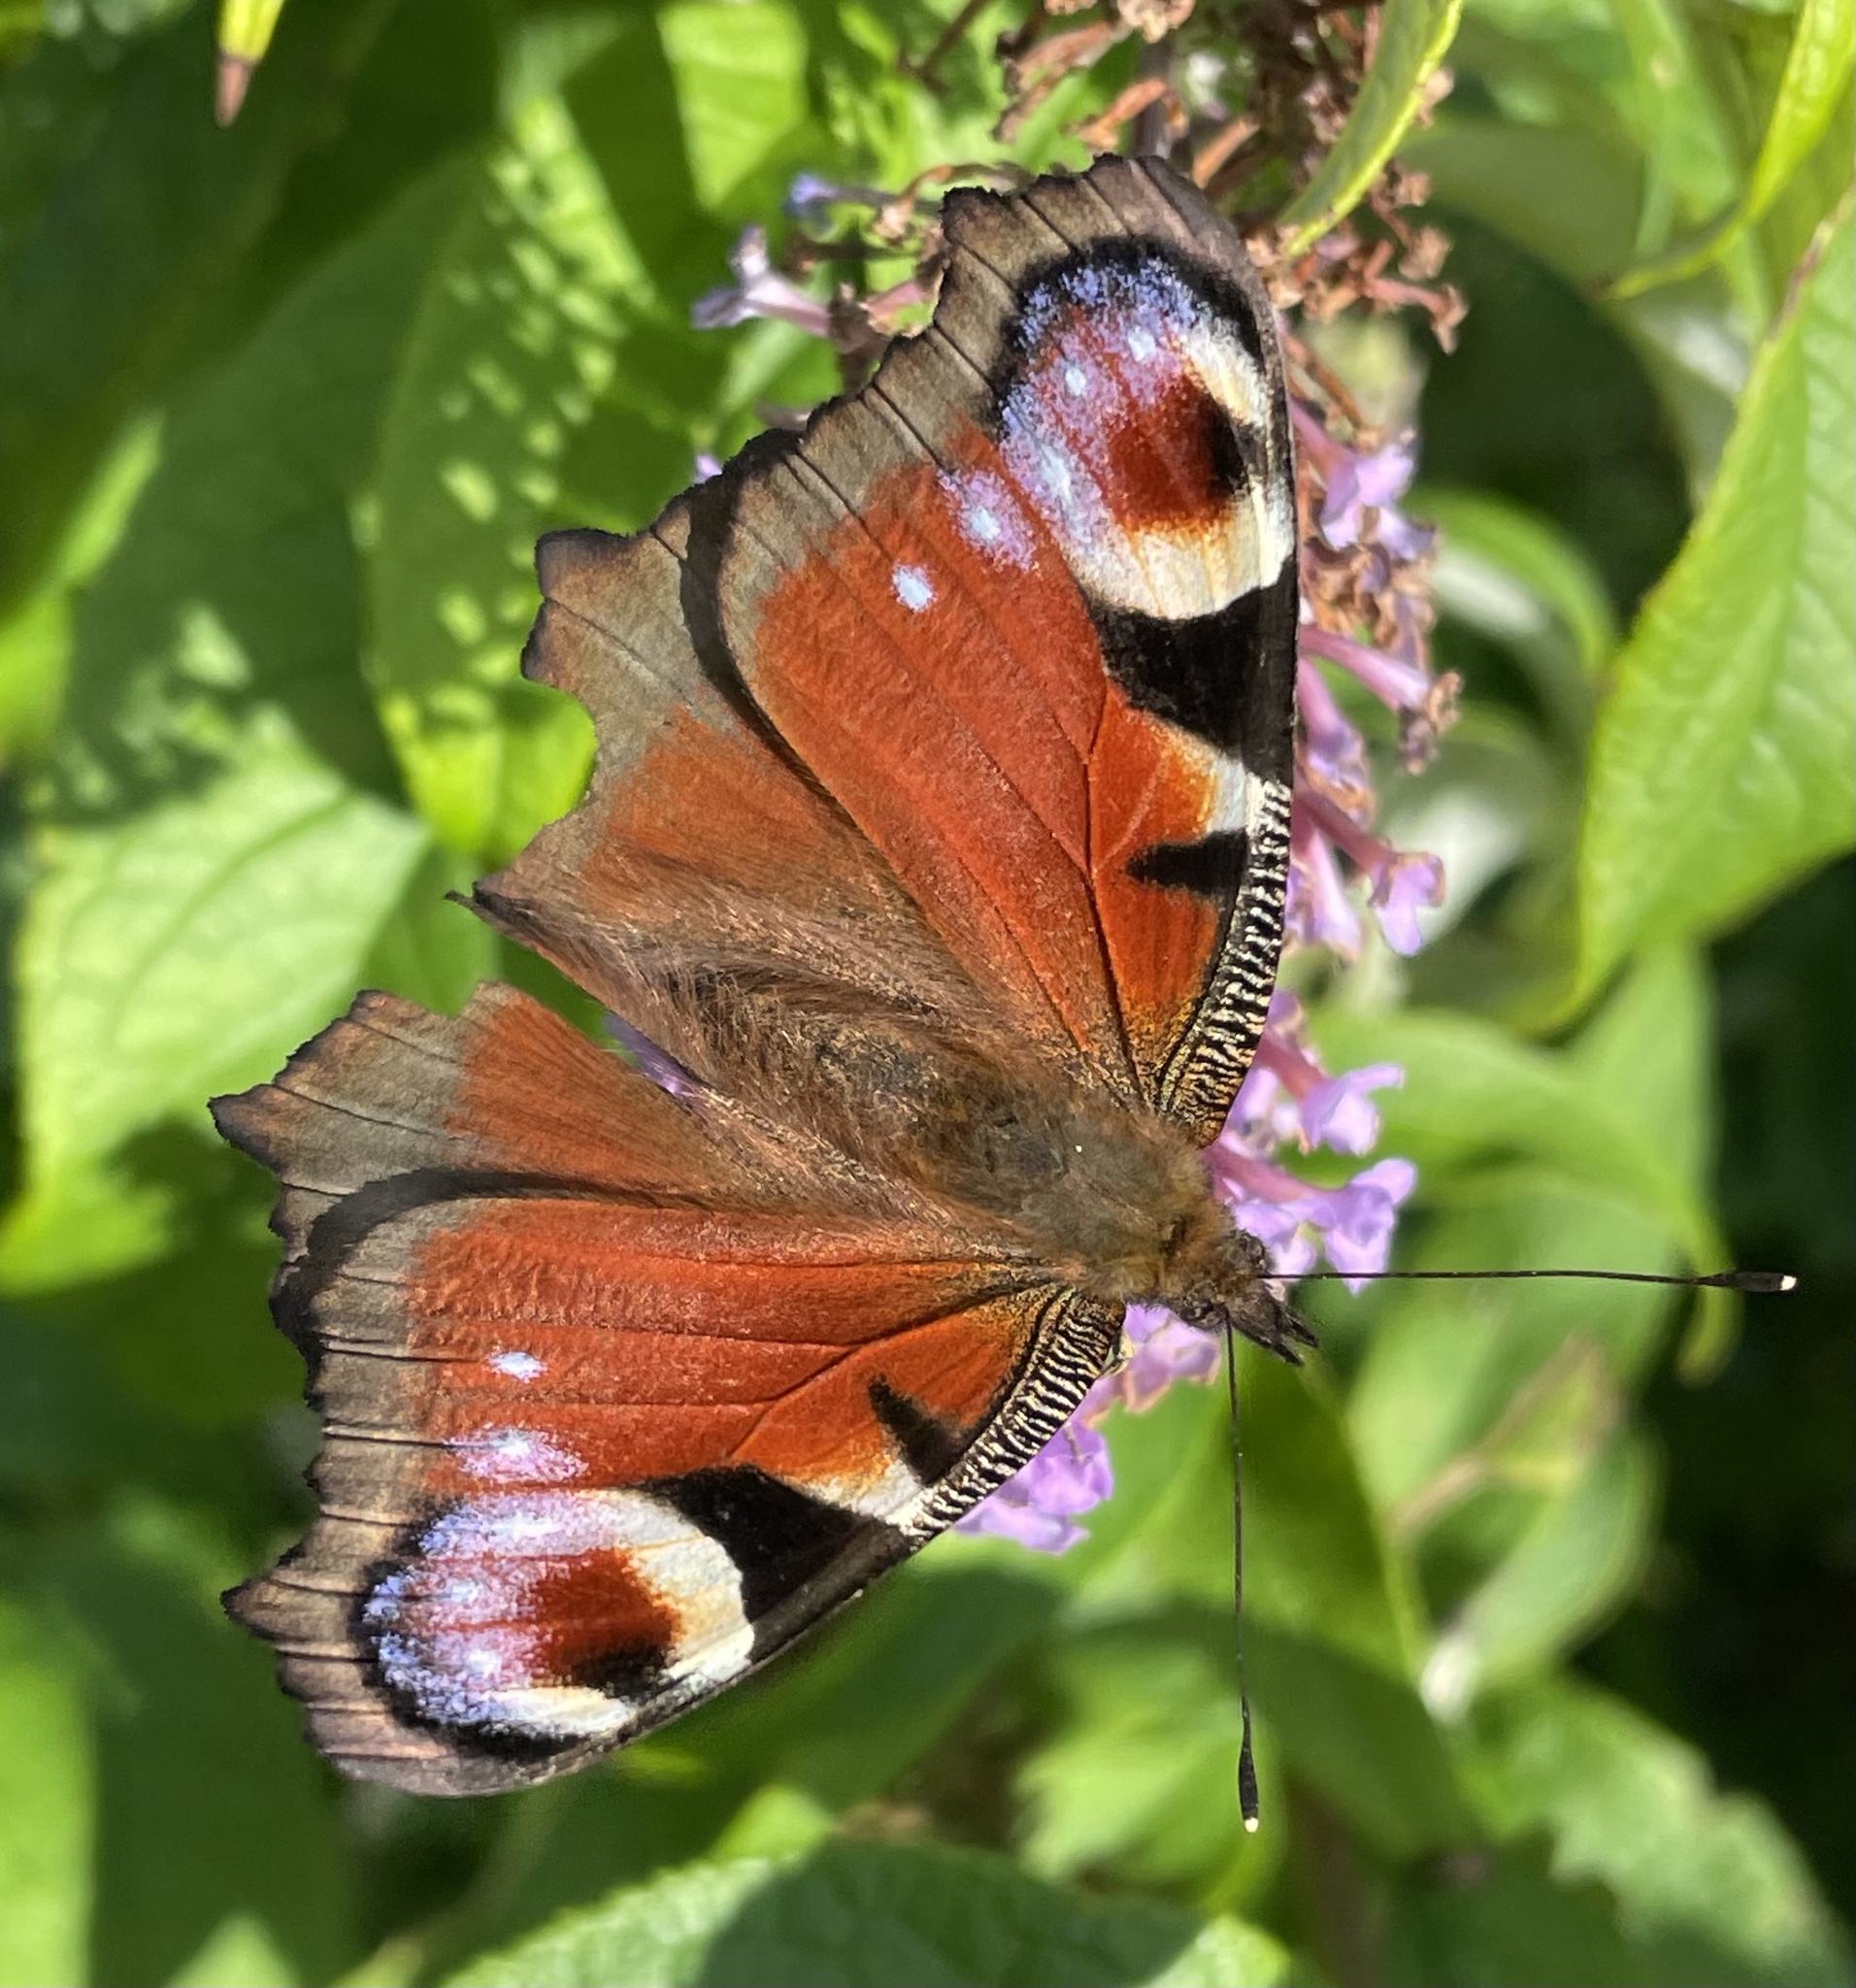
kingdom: Animalia
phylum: Arthropoda
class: Insecta
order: Lepidoptera
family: Nymphalidae
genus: Aglais
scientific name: Aglais io
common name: Peacock
